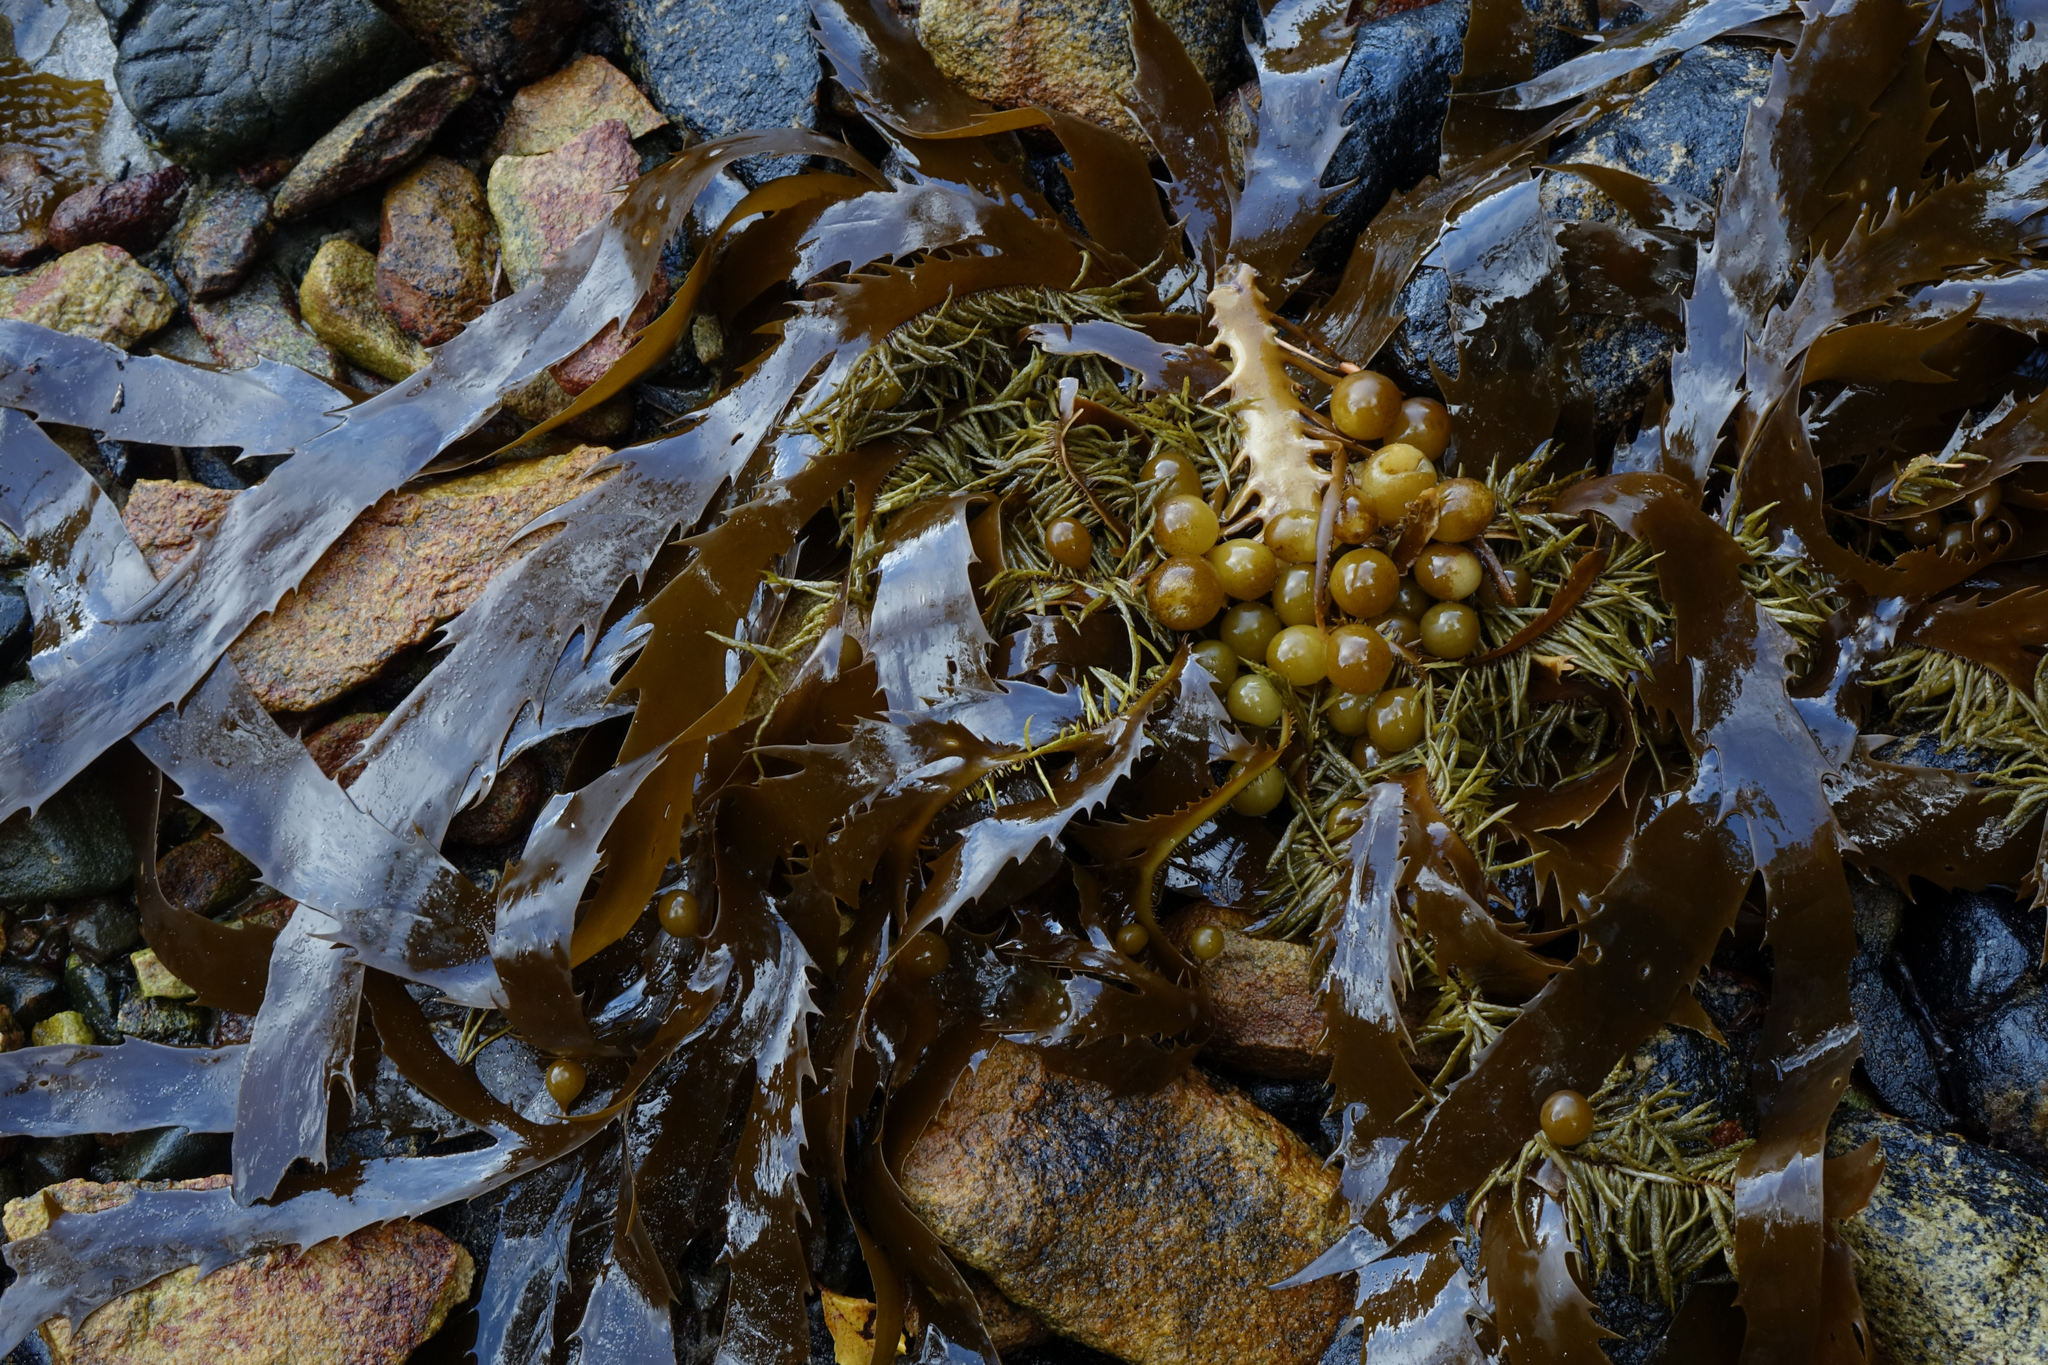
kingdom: Chromista
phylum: Ochrophyta
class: Phaeophyceae
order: Fucales
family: Seirococcaceae
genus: Marginariella
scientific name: Marginariella urvilliana
